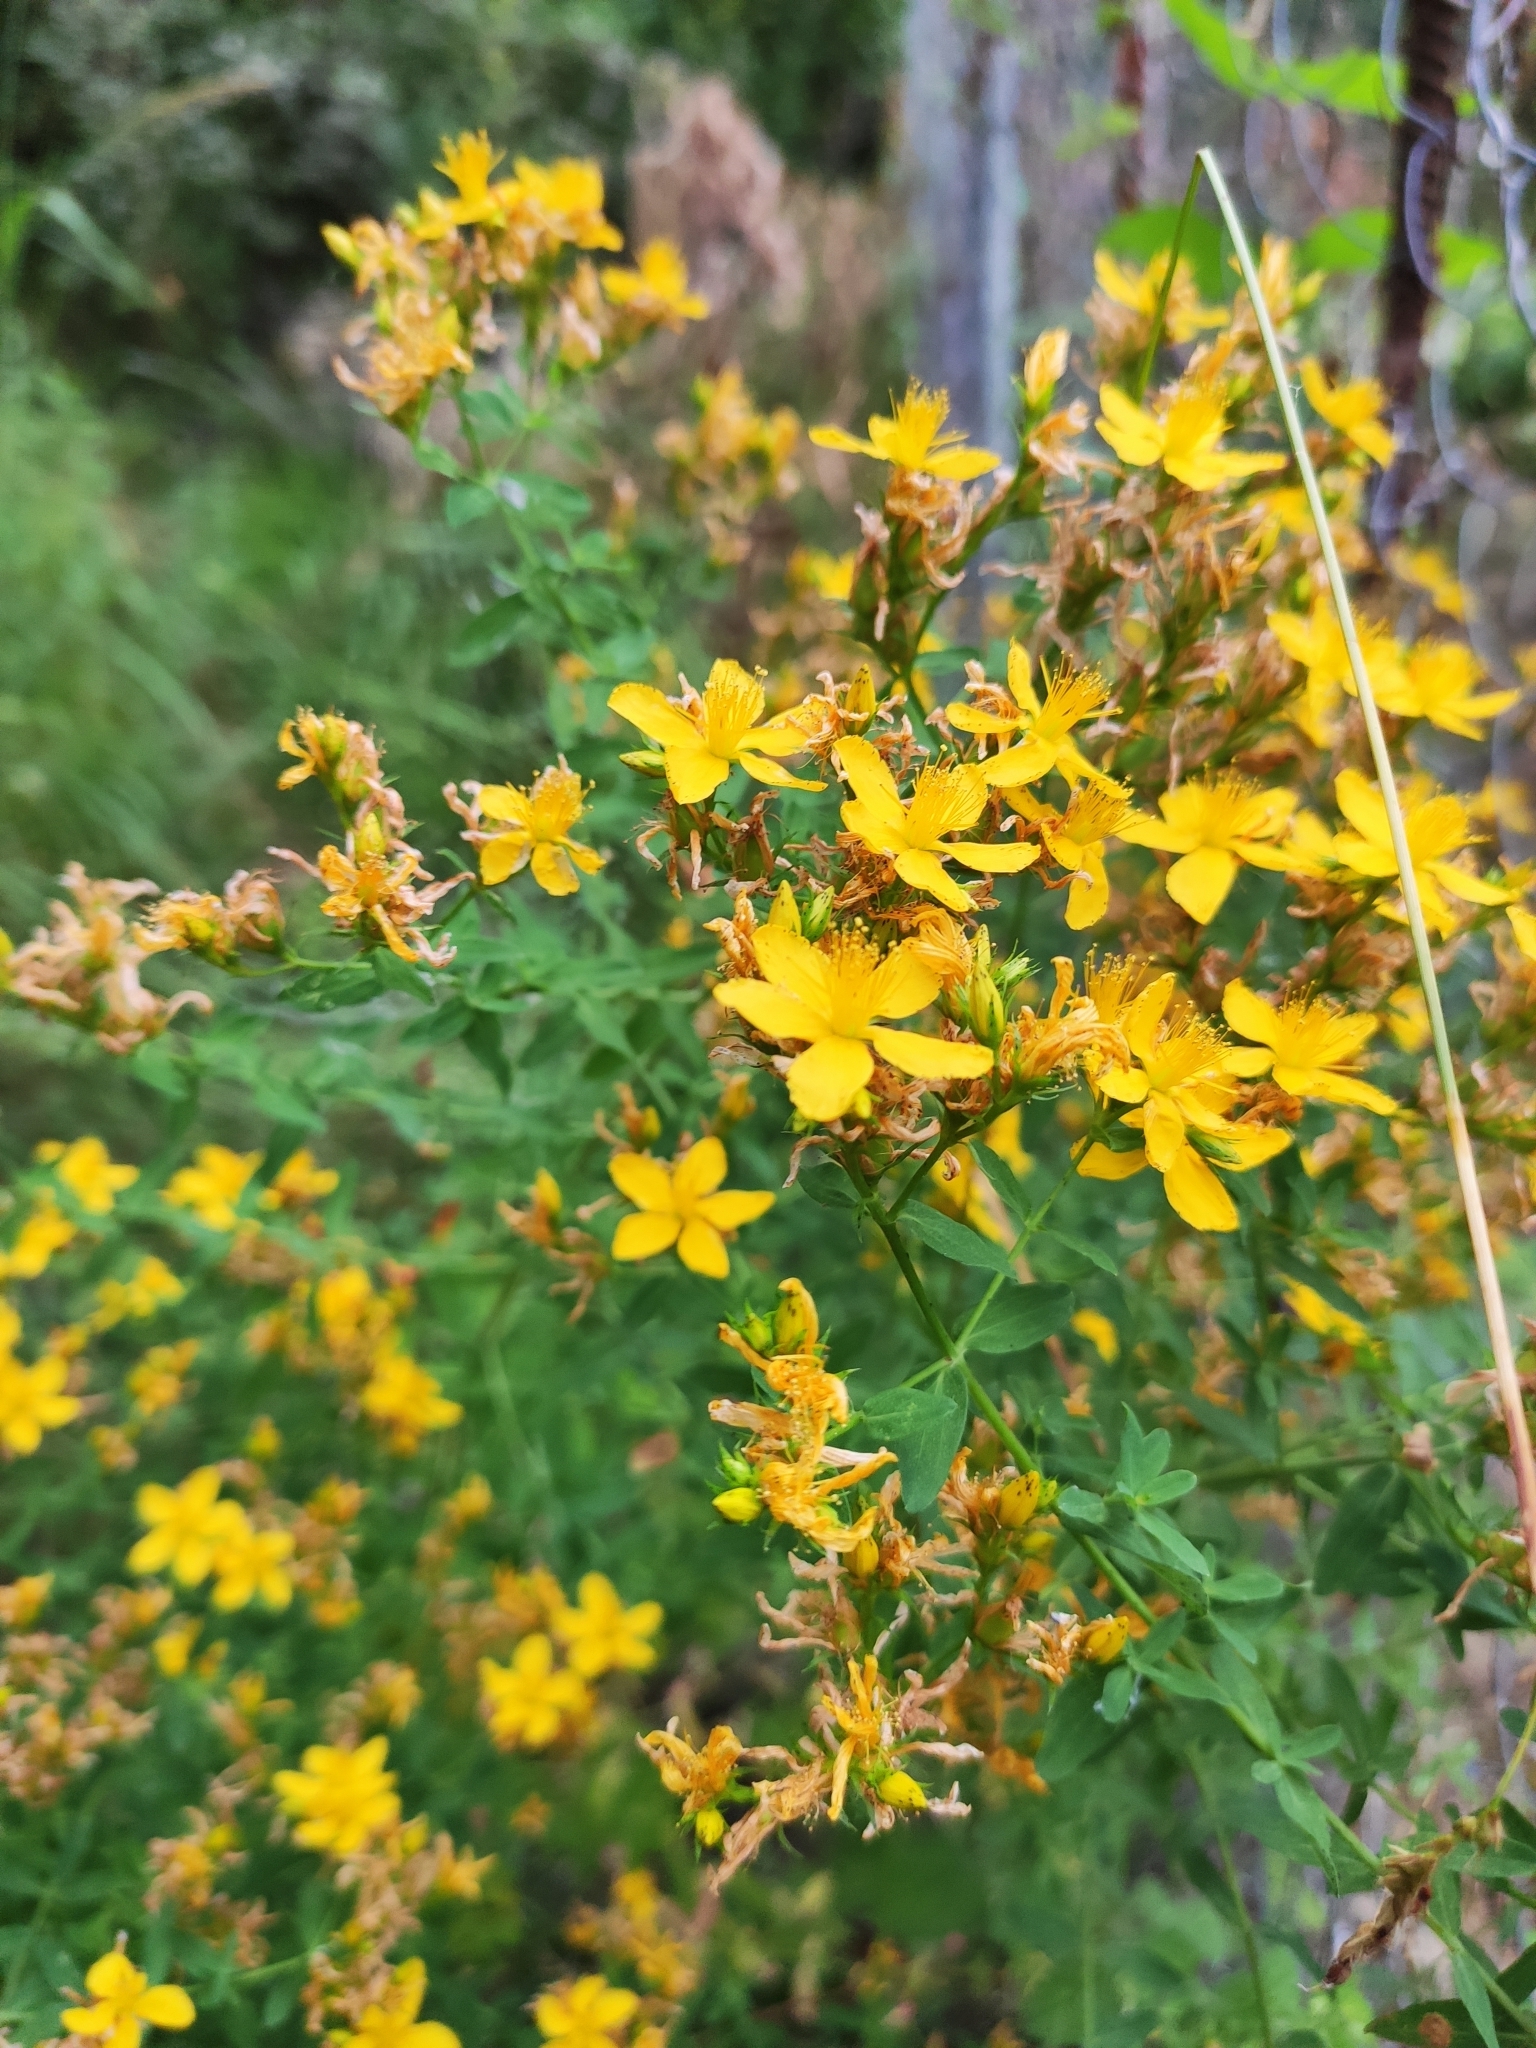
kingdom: Plantae
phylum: Tracheophyta
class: Magnoliopsida
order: Malpighiales
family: Hypericaceae
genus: Hypericum
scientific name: Hypericum perforatum
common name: Common st. johnswort
